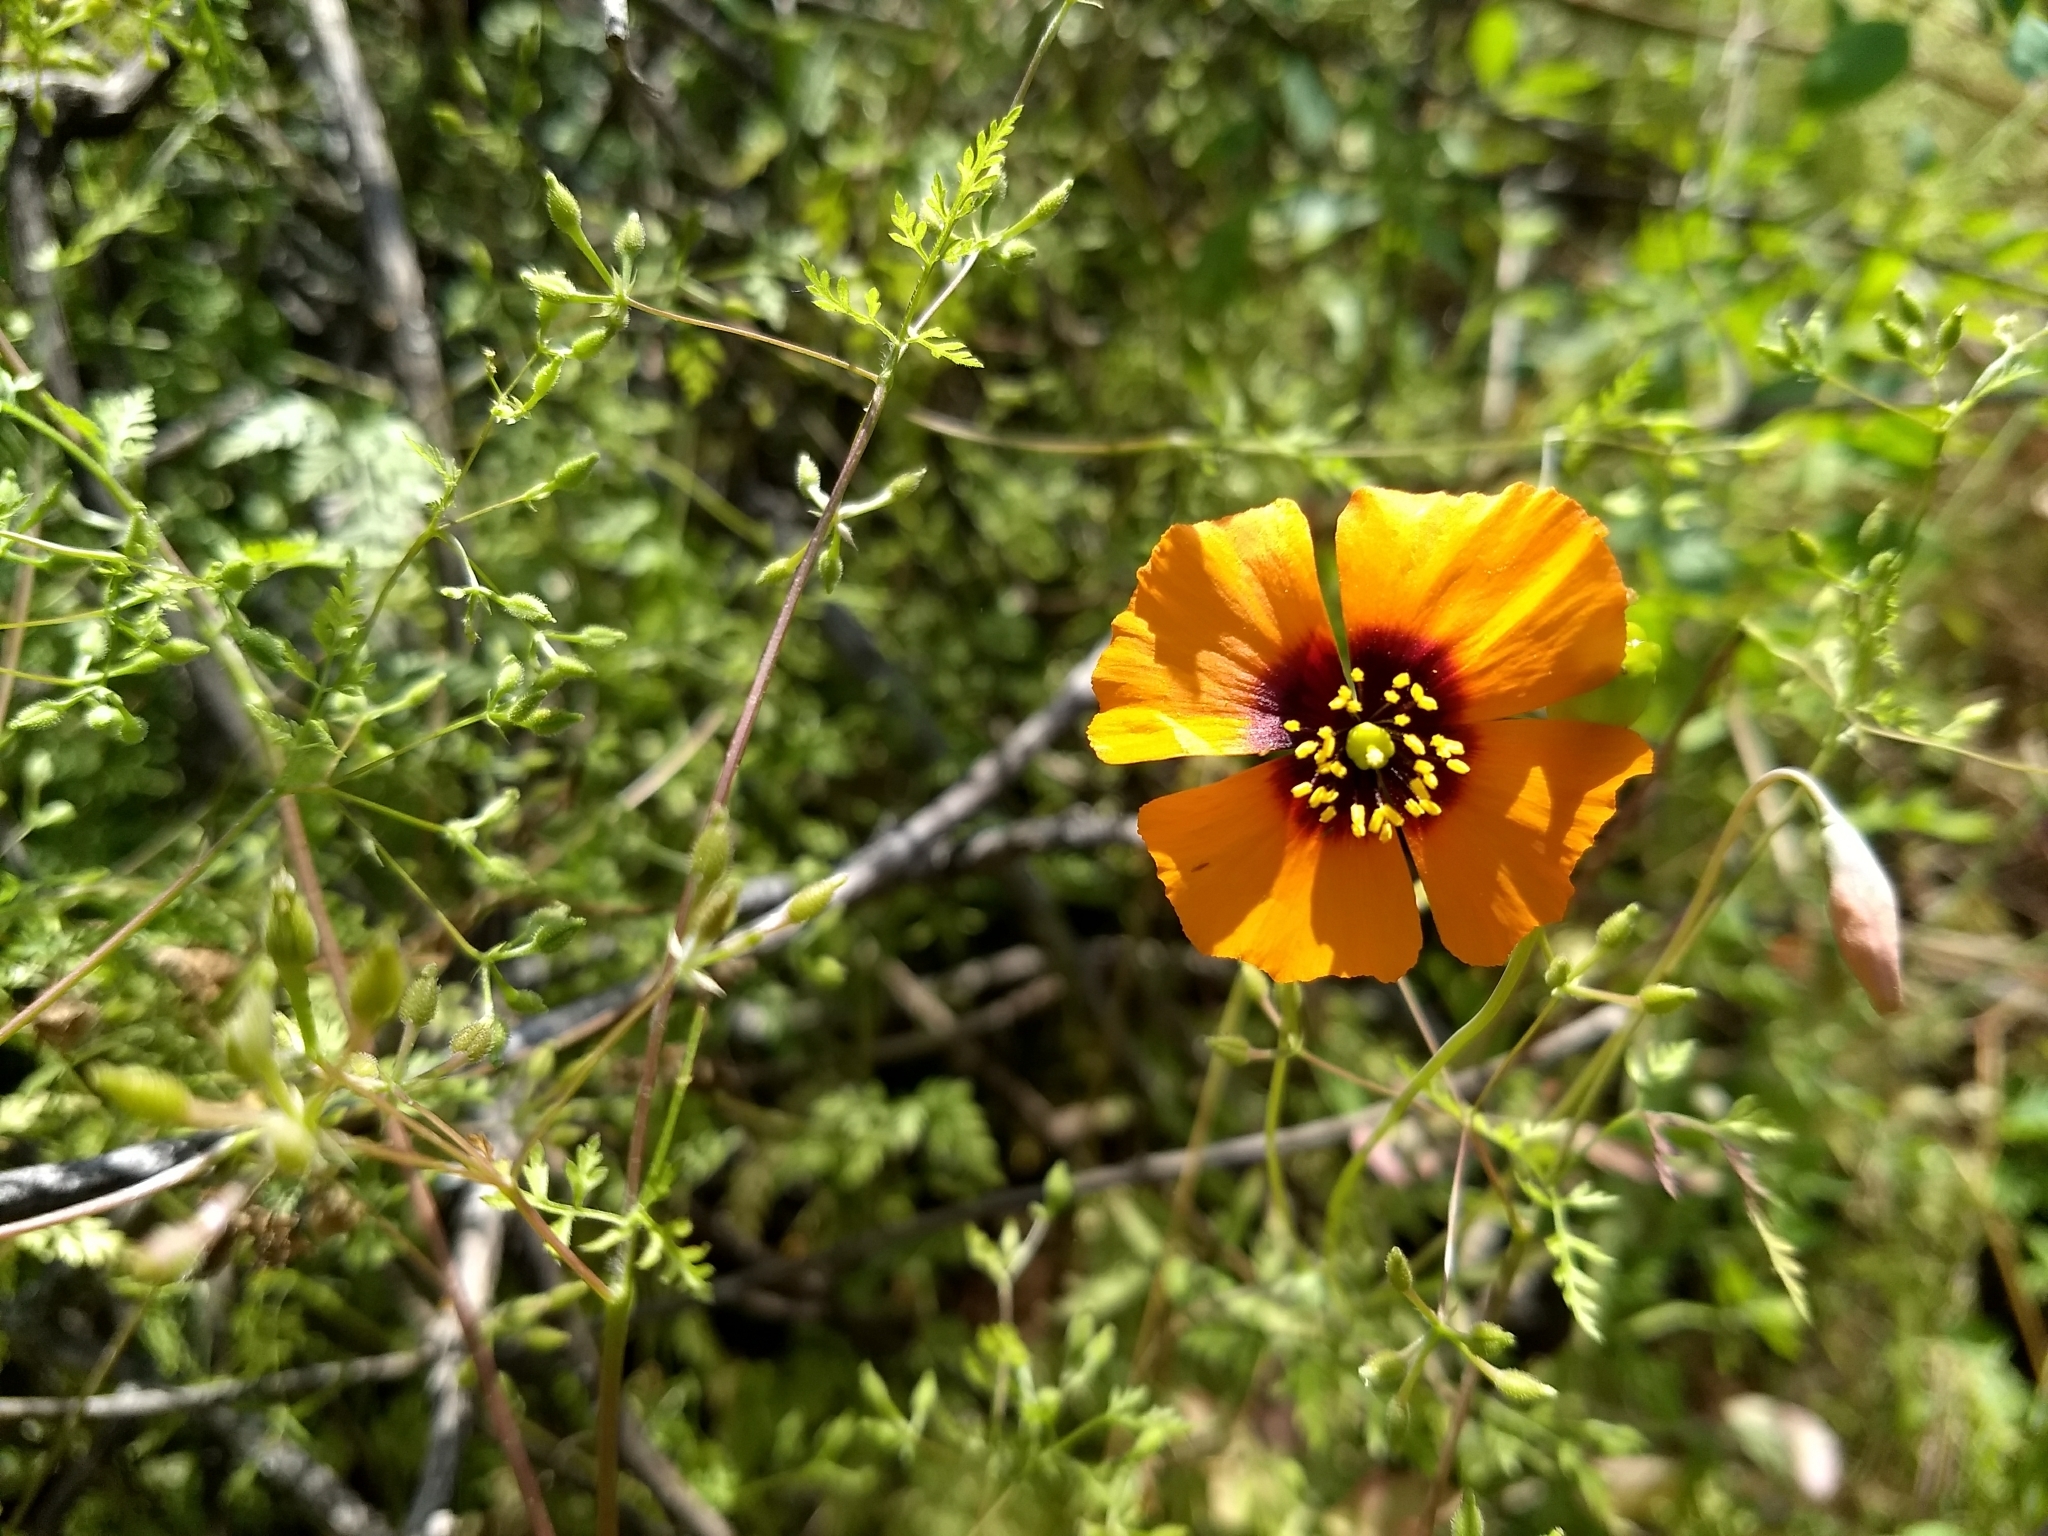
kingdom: Plantae
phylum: Tracheophyta
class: Magnoliopsida
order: Ranunculales
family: Papaveraceae
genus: Stylomecon
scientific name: Stylomecon heterophylla
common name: Flaming-poppy
